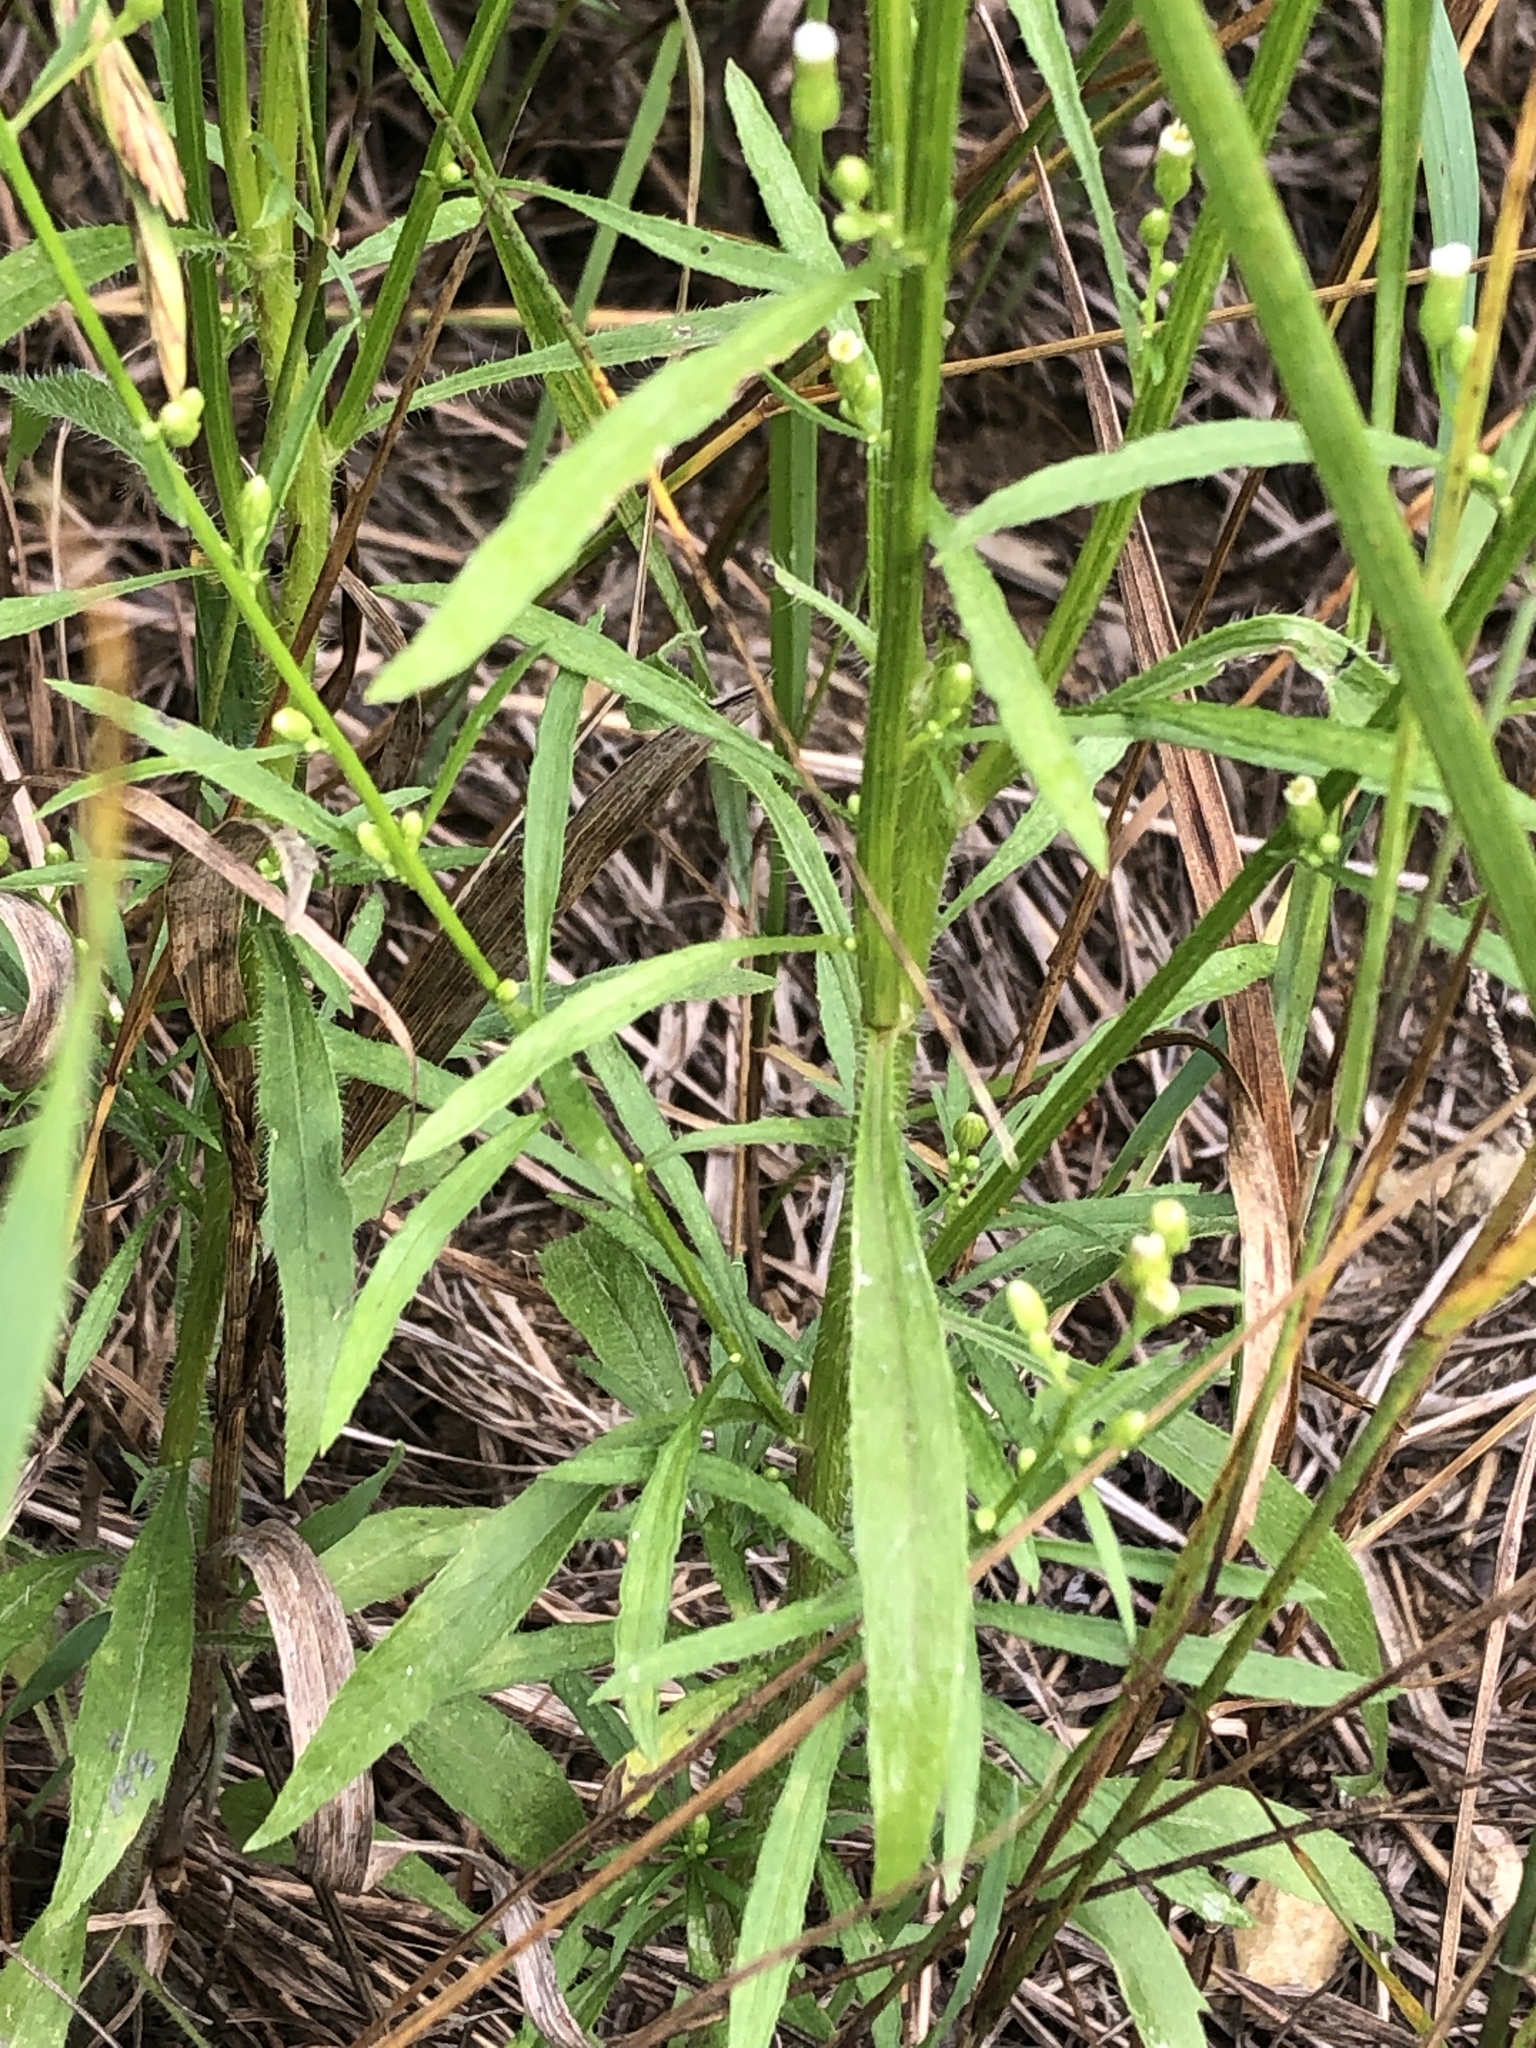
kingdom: Plantae
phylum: Tracheophyta
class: Magnoliopsida
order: Asterales
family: Asteraceae
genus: Erigeron
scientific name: Erigeron canadensis
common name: Canadian fleabane
